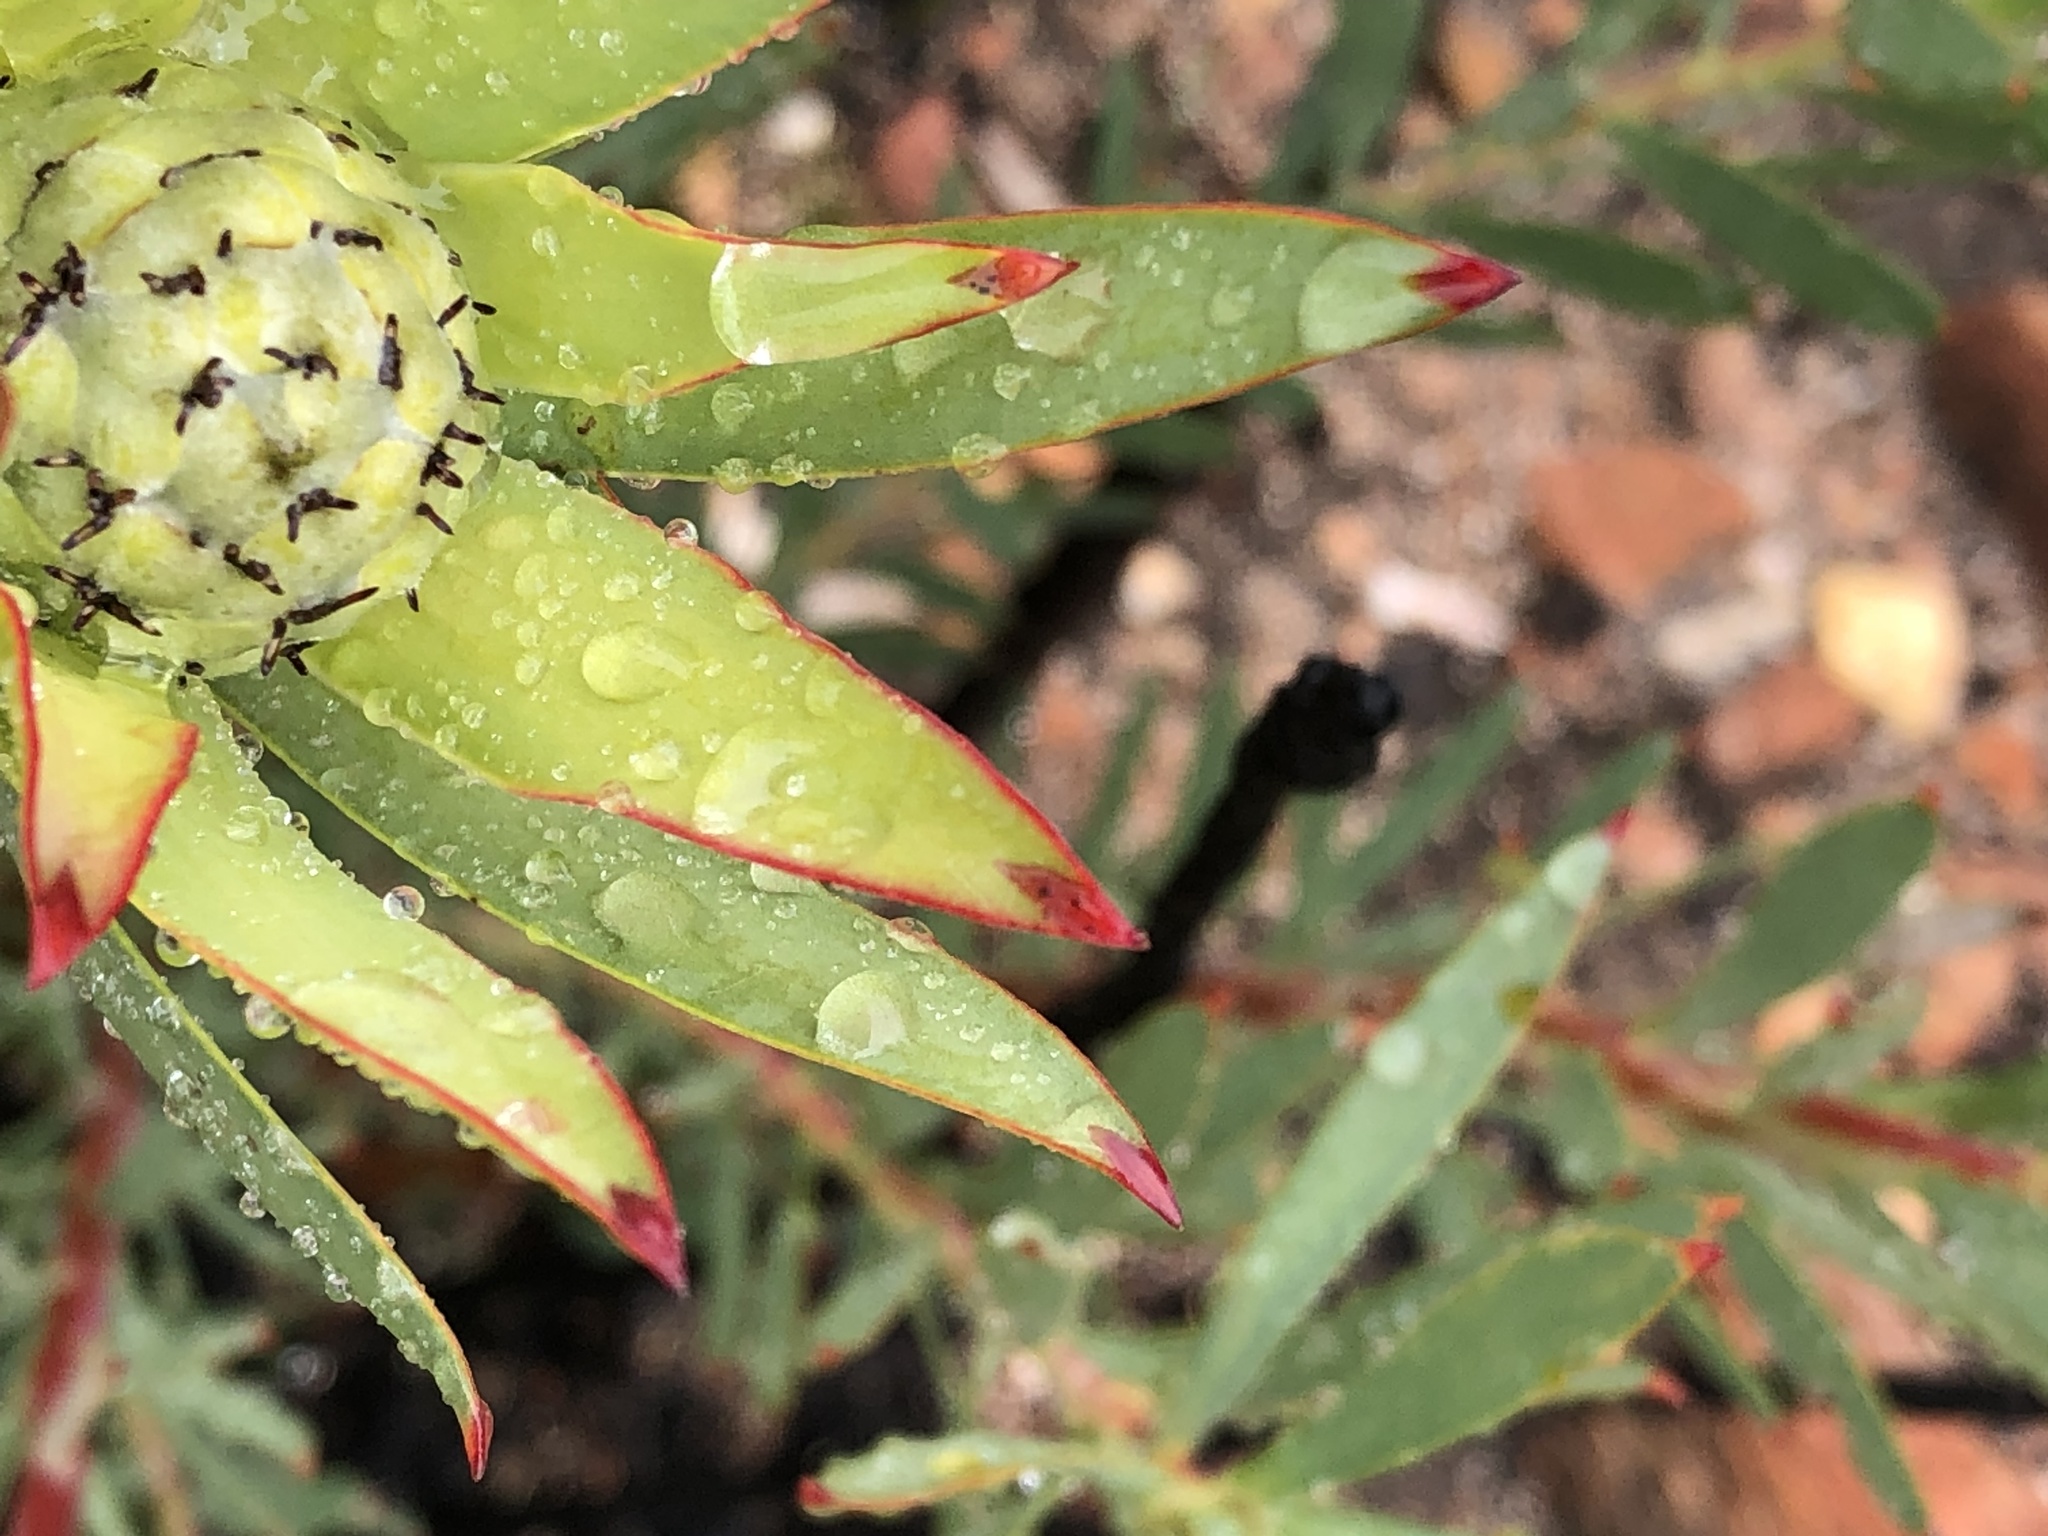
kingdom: Plantae
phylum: Tracheophyta
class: Magnoliopsida
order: Proteales
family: Proteaceae
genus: Leucadendron
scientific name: Leucadendron salignum
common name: Common sunshine conebush
